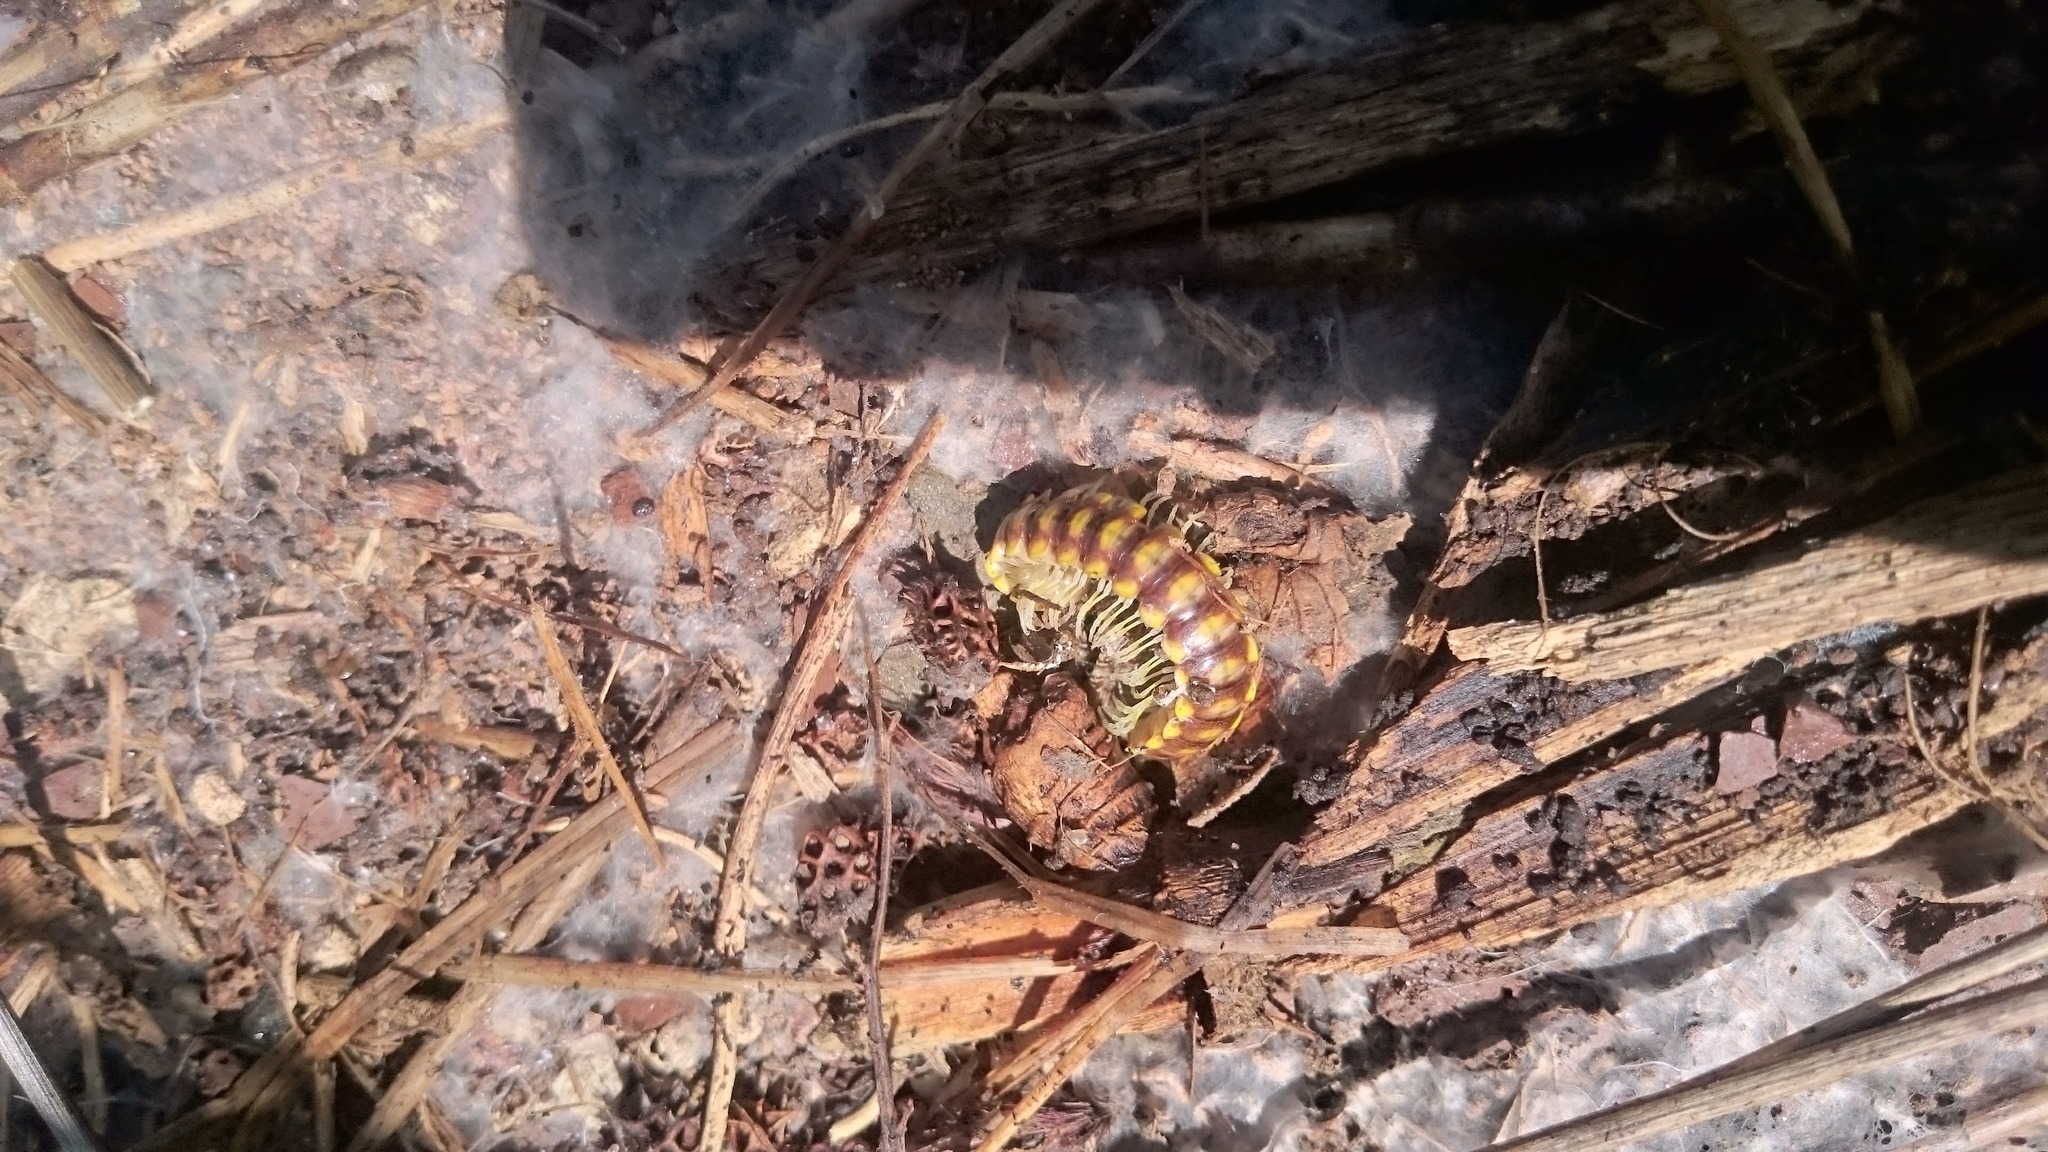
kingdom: Animalia
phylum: Arthropoda
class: Diplopoda
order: Polydesmida
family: Xystodesmidae
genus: Melaphe
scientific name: Melaphe cypria
